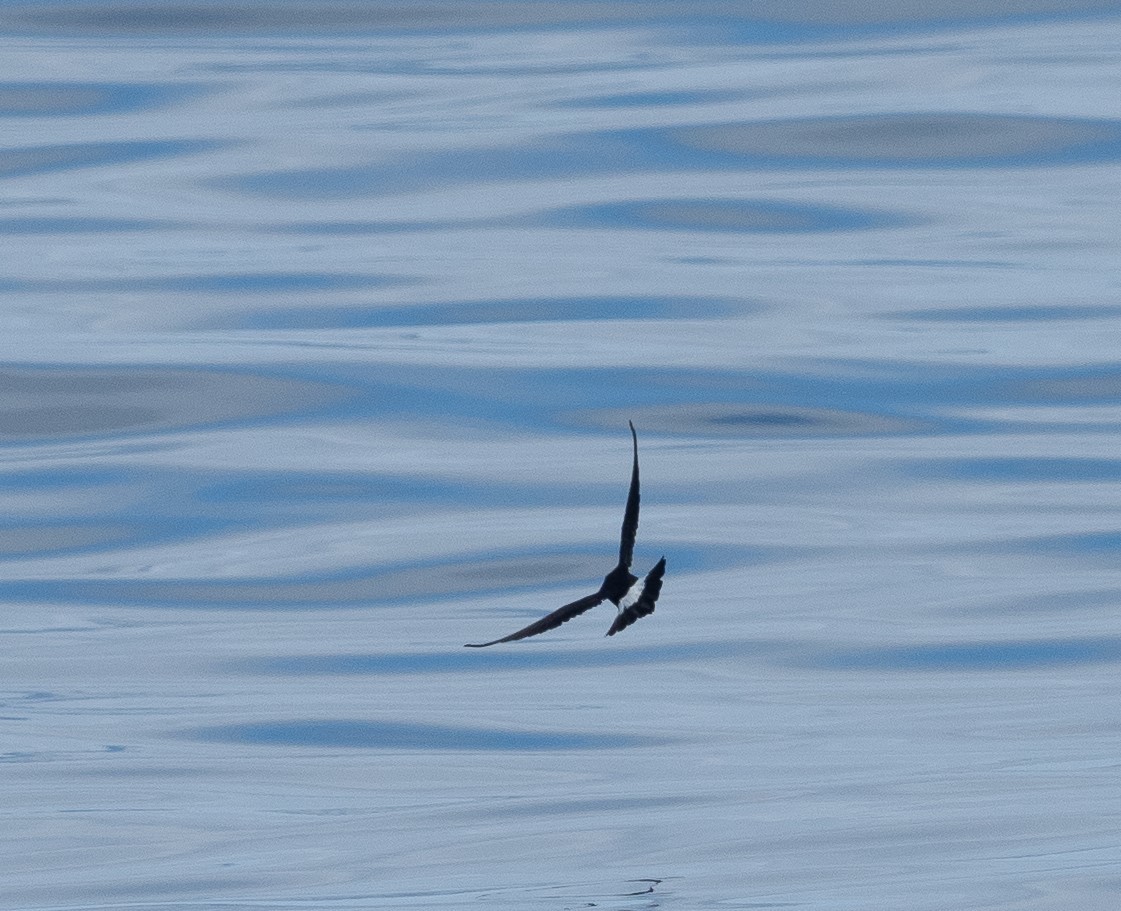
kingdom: Animalia
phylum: Chordata
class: Aves
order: Procellariiformes
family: Hydrobatidae
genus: Hydrobates
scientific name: Hydrobates pelagicus
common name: European storm-petrel
